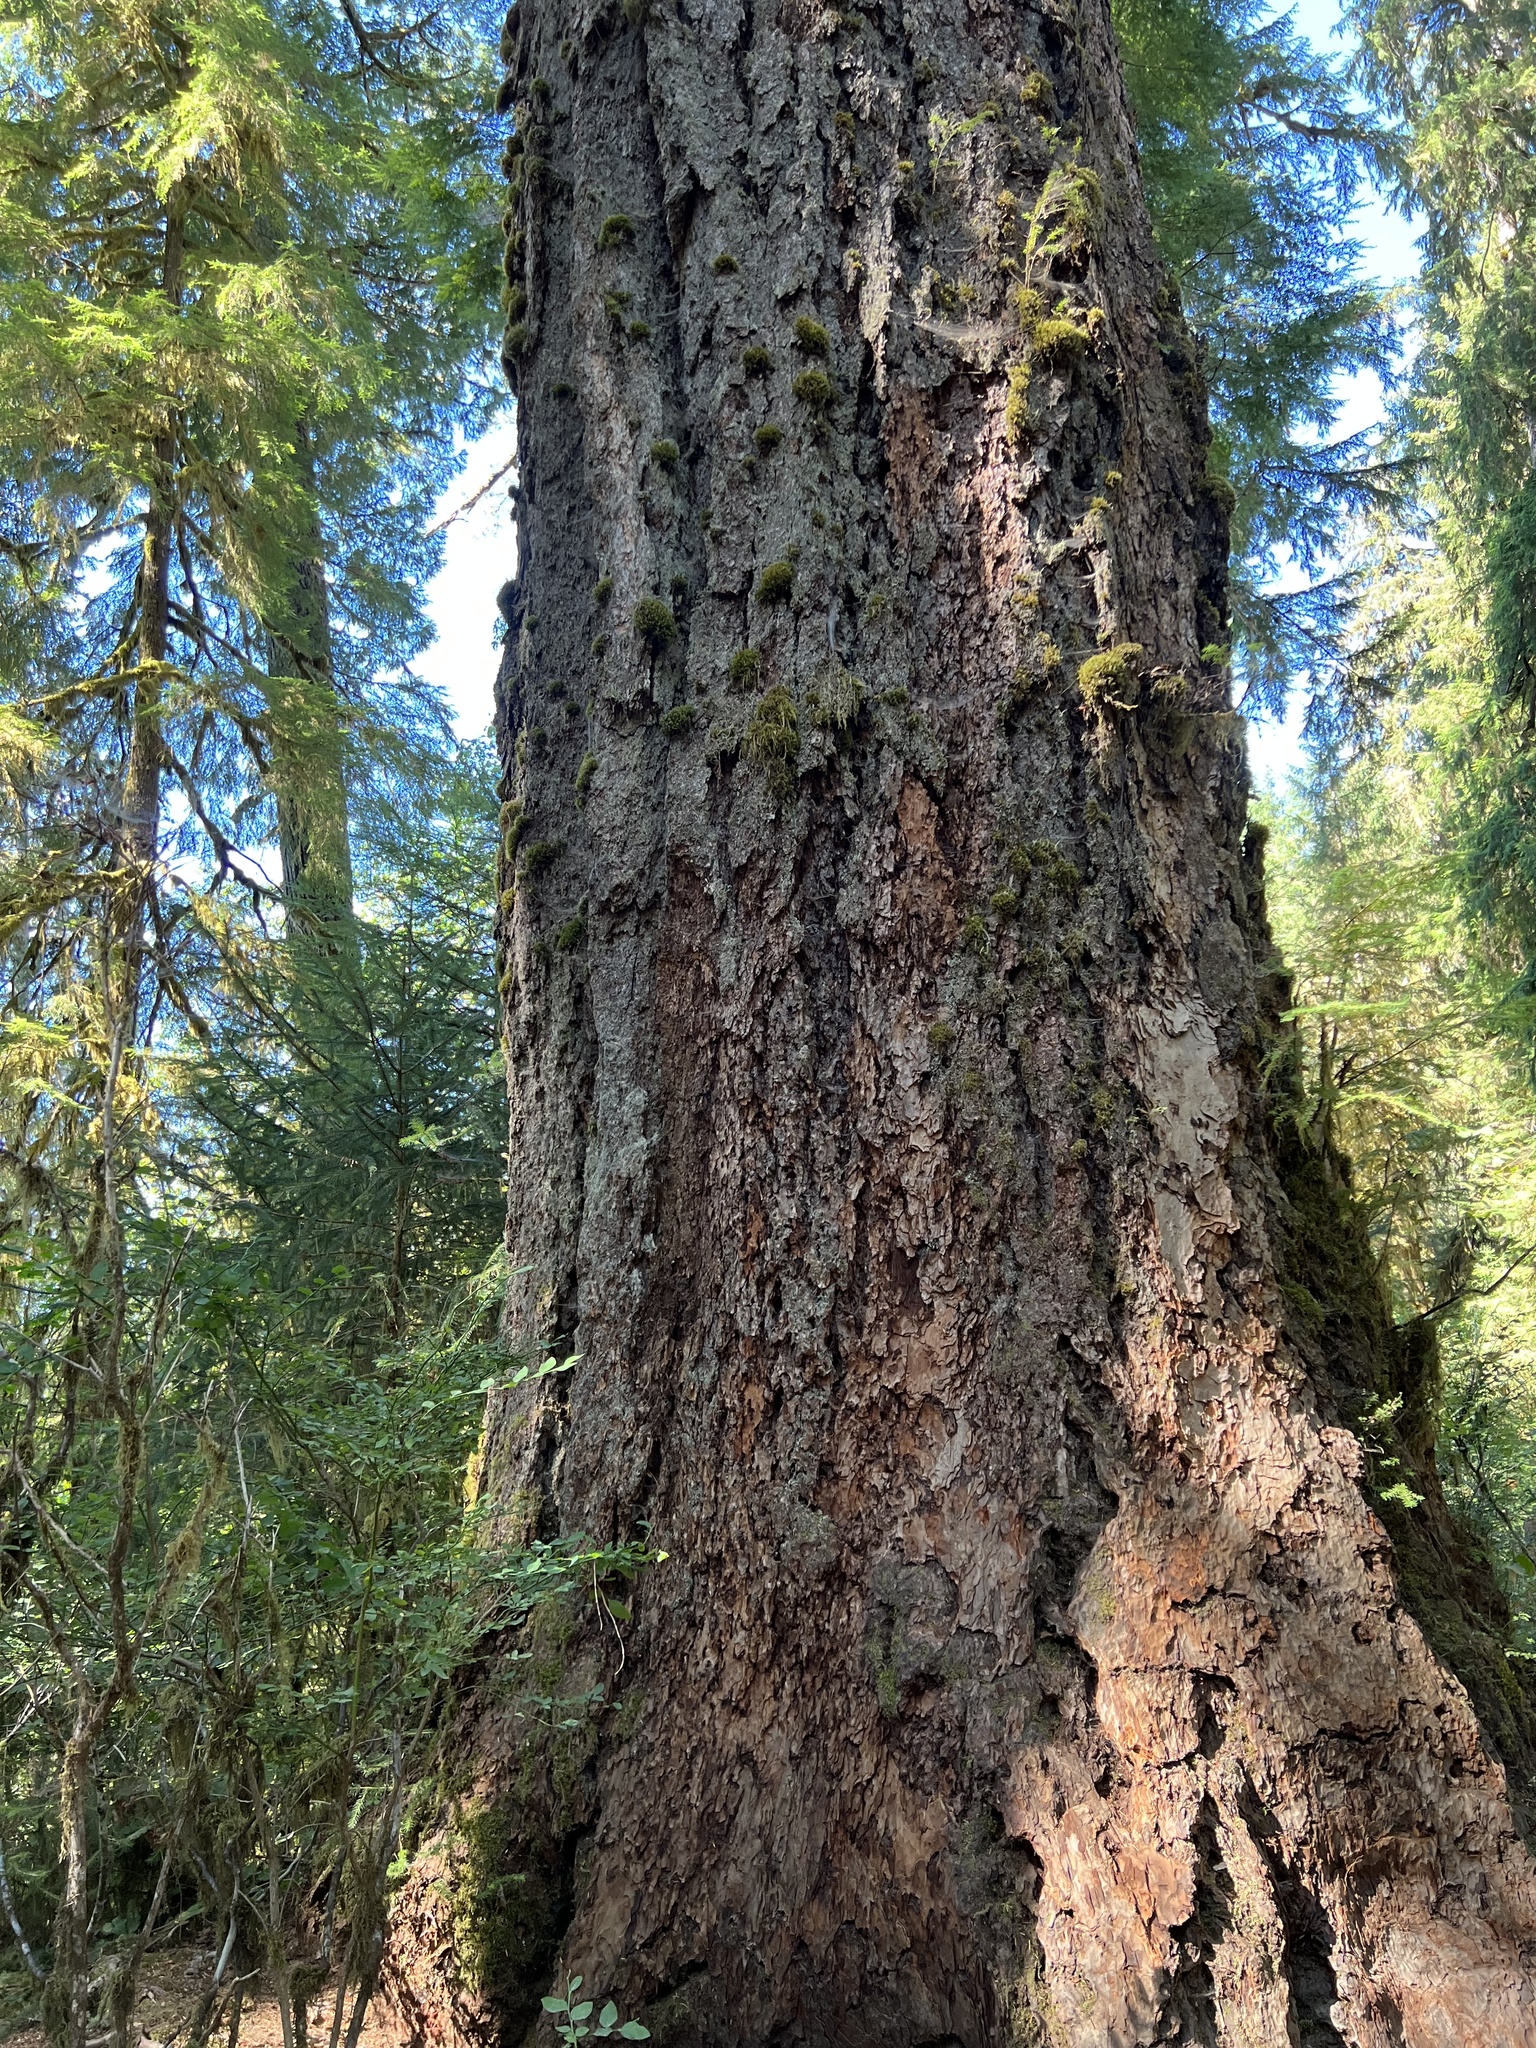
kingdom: Plantae
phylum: Tracheophyta
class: Pinopsida
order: Pinales
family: Pinaceae
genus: Pseudotsuga
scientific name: Pseudotsuga menziesii
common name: Douglas fir
